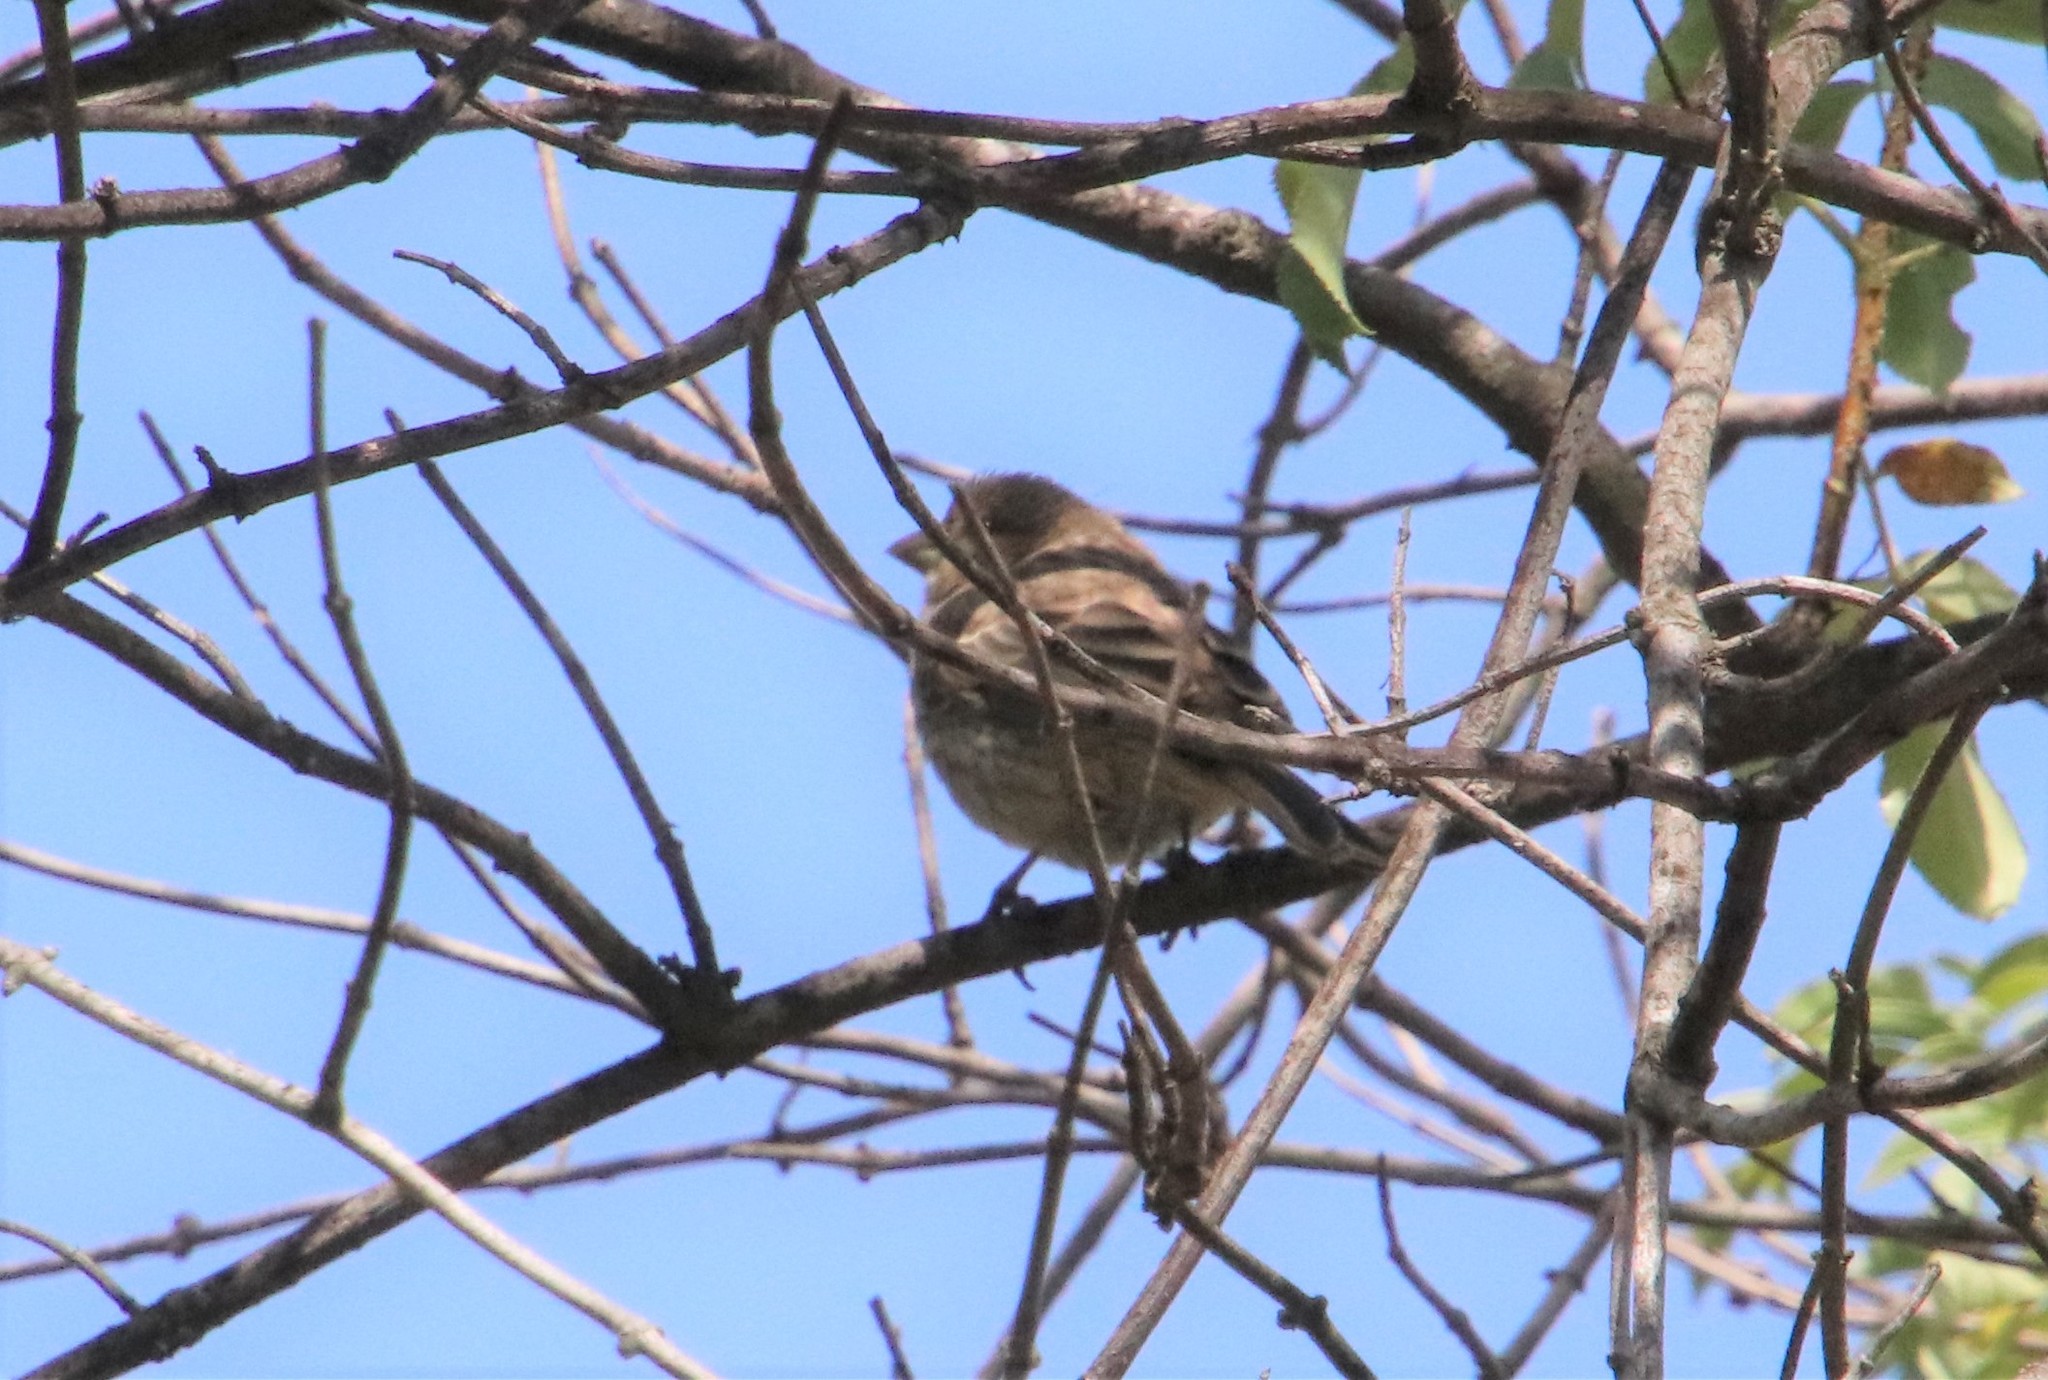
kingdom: Animalia
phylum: Chordata
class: Aves
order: Passeriformes
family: Fringillidae
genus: Haemorhous
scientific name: Haemorhous mexicanus
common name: House finch
